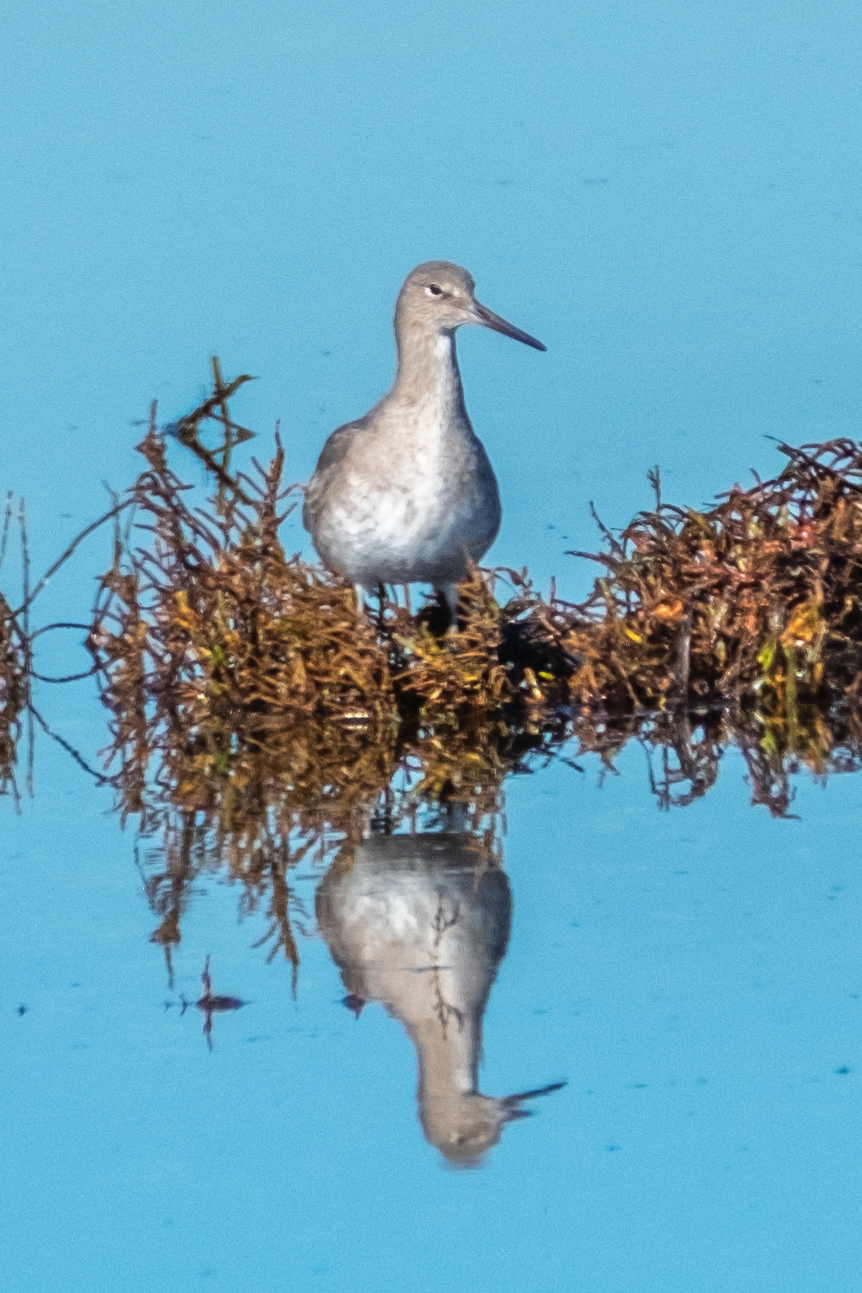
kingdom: Animalia
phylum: Chordata
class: Aves
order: Charadriiformes
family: Scolopacidae
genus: Tringa
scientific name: Tringa semipalmata
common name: Willet
